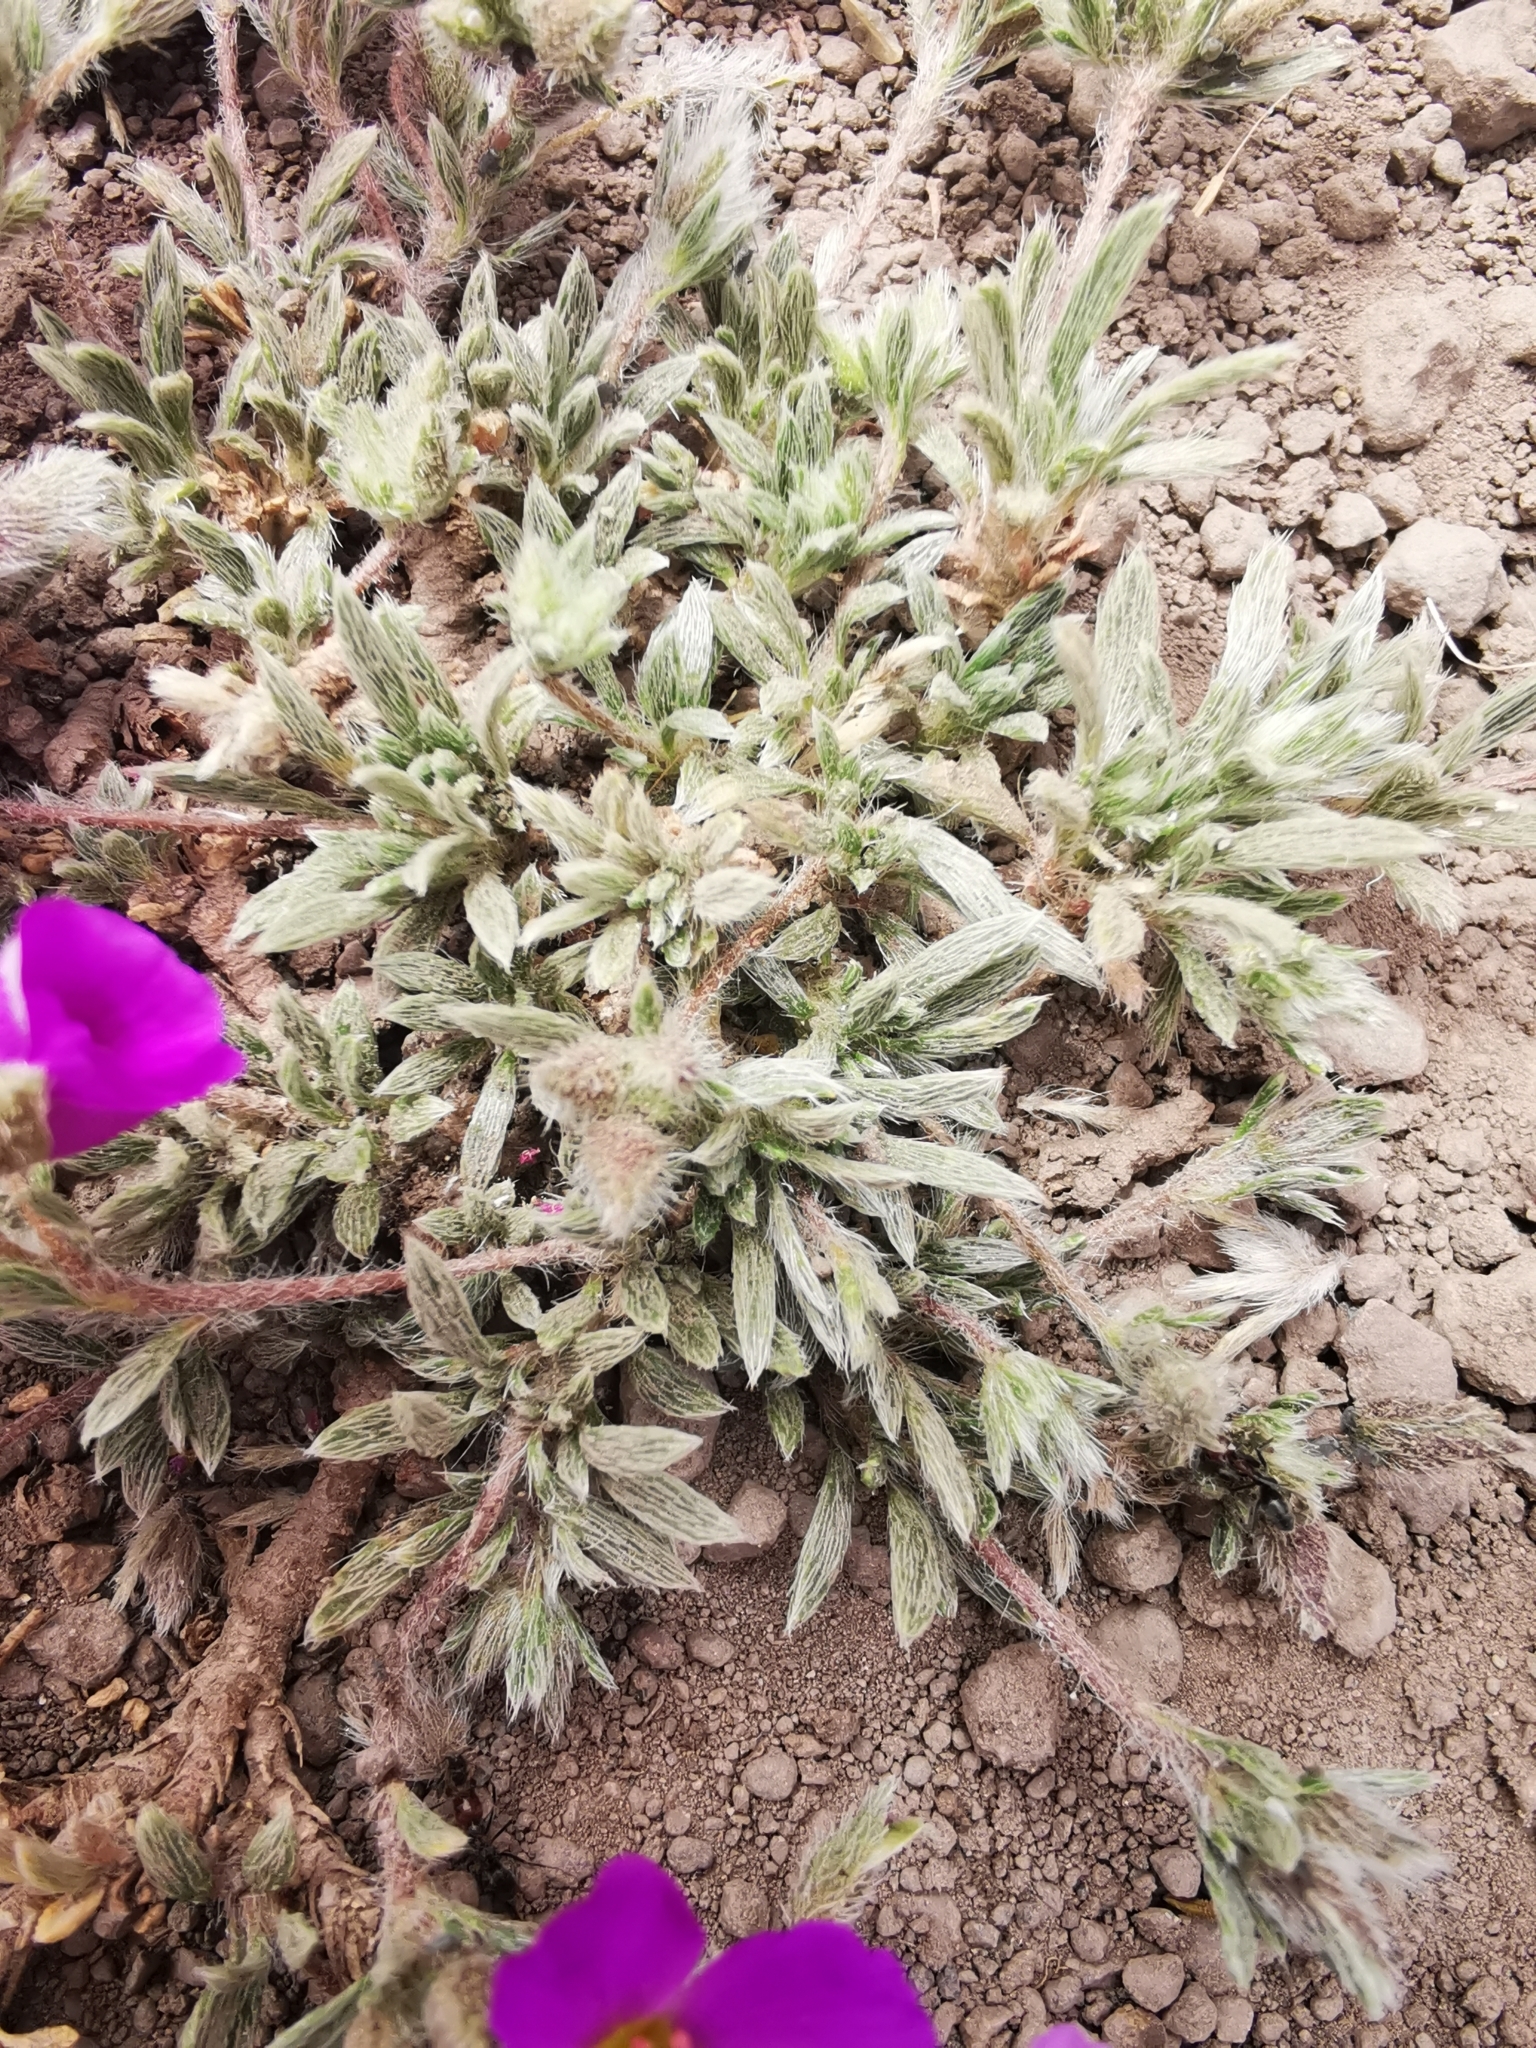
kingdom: Plantae
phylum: Tracheophyta
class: Magnoliopsida
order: Caryophyllales
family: Montiaceae
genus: Montiopsis
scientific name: Montiopsis gilliesii
